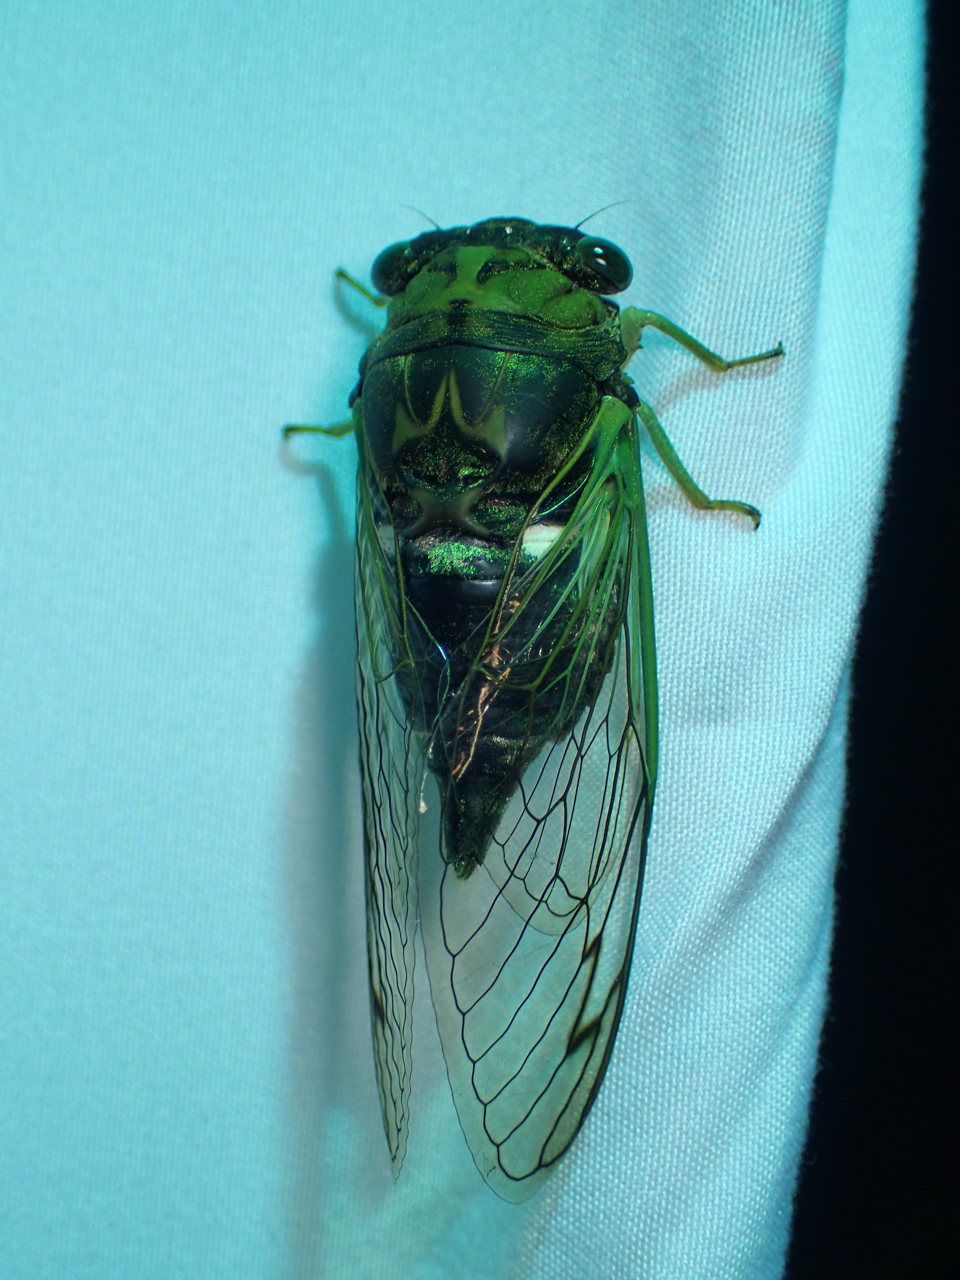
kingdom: Animalia
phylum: Arthropoda
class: Insecta
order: Hemiptera
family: Cicadidae
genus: Neotibicen
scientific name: Neotibicen tibicen
